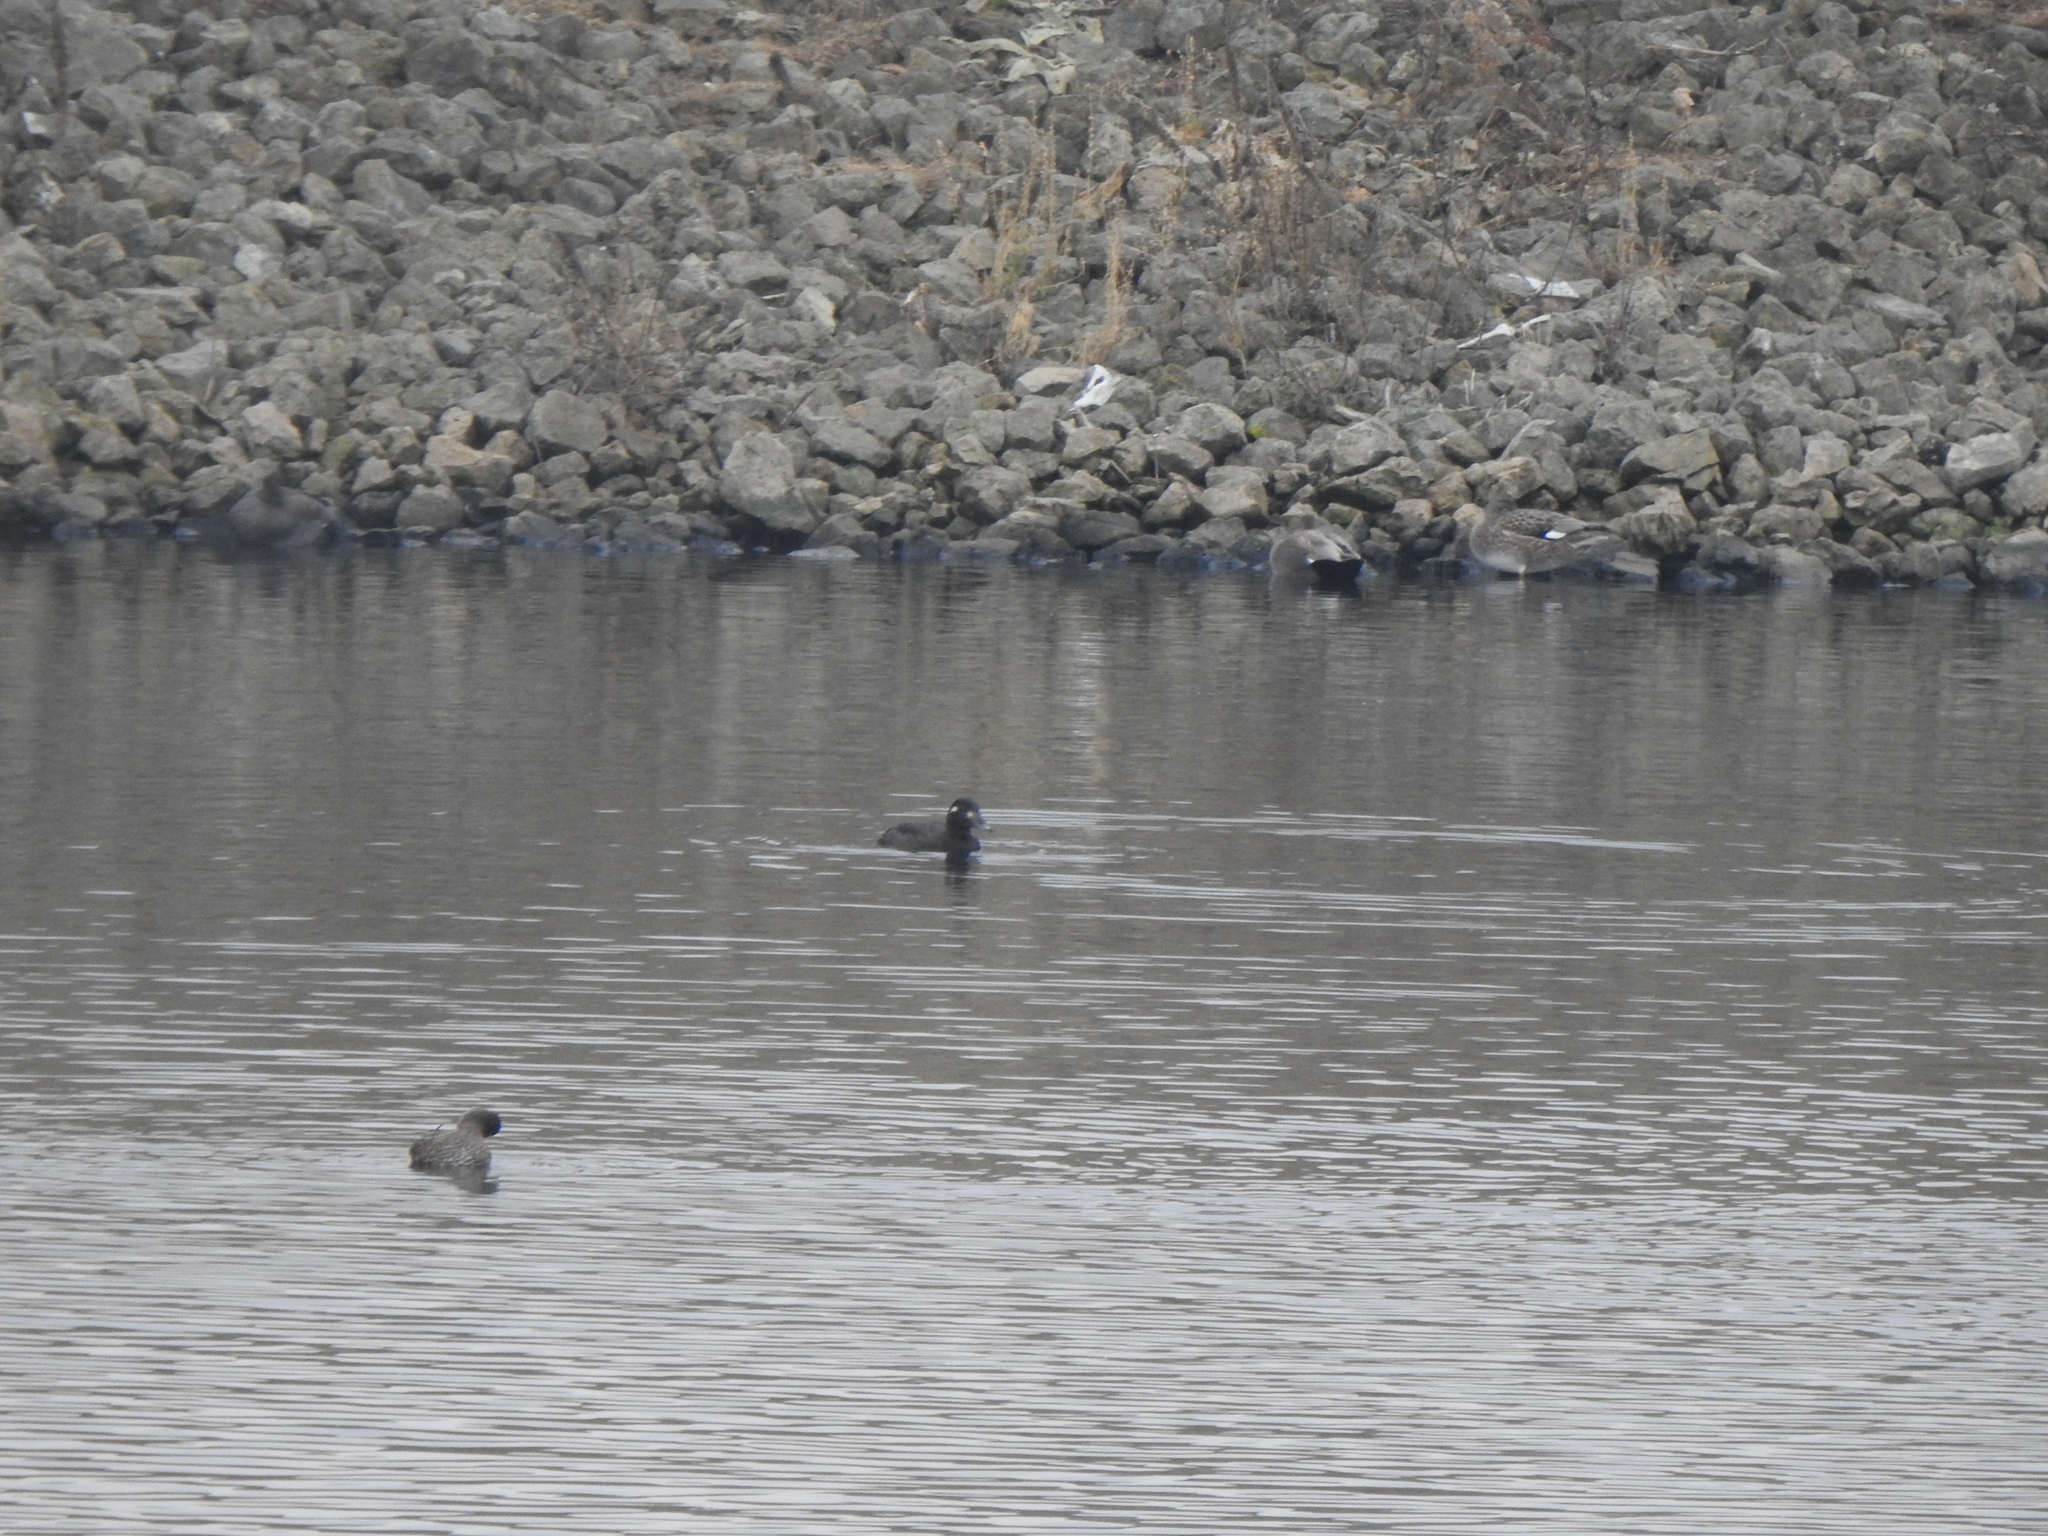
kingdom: Animalia
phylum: Chordata
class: Aves
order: Anseriformes
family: Anatidae
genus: Melanitta
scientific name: Melanitta deglandi
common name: White-winged scoter
